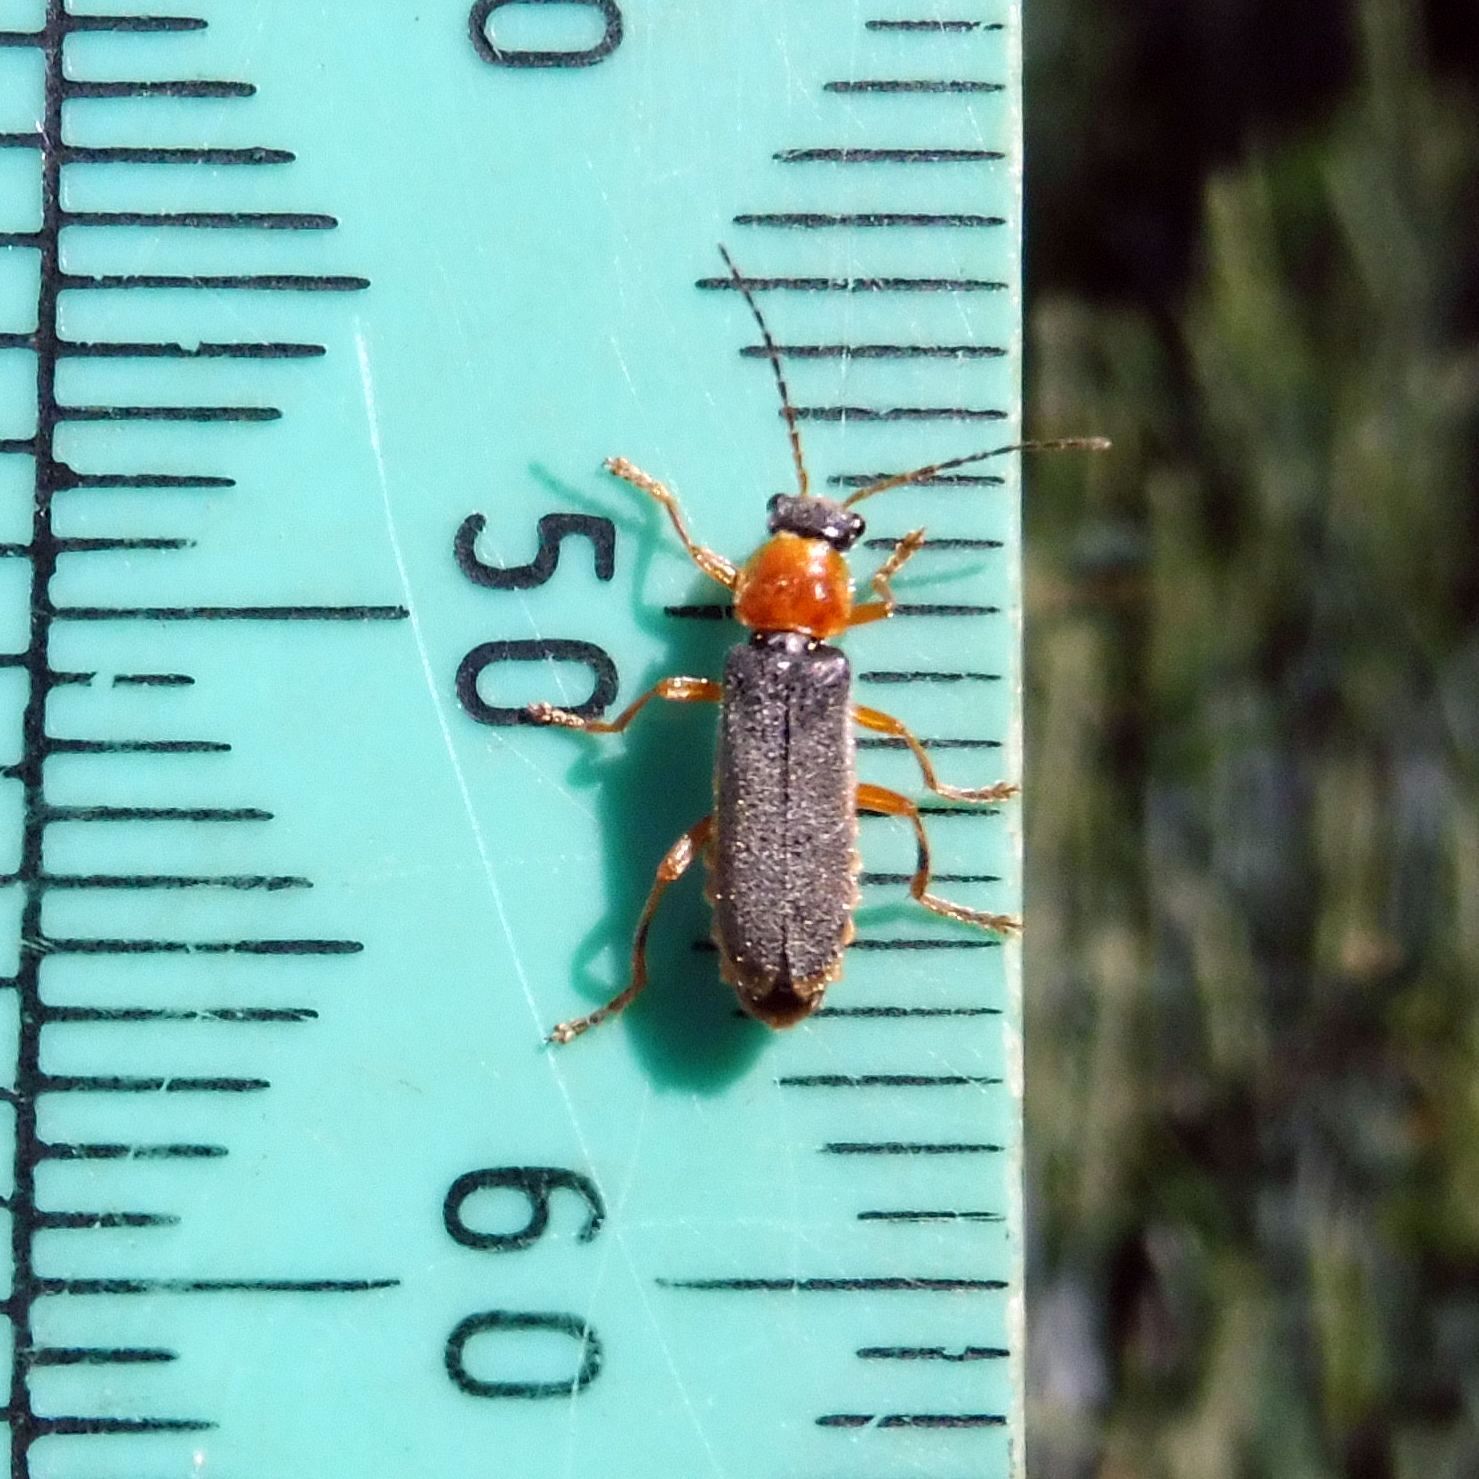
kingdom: Animalia
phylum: Arthropoda
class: Insecta
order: Coleoptera
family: Cantharidae
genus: Cantharis
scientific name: Cantharis lateralis
